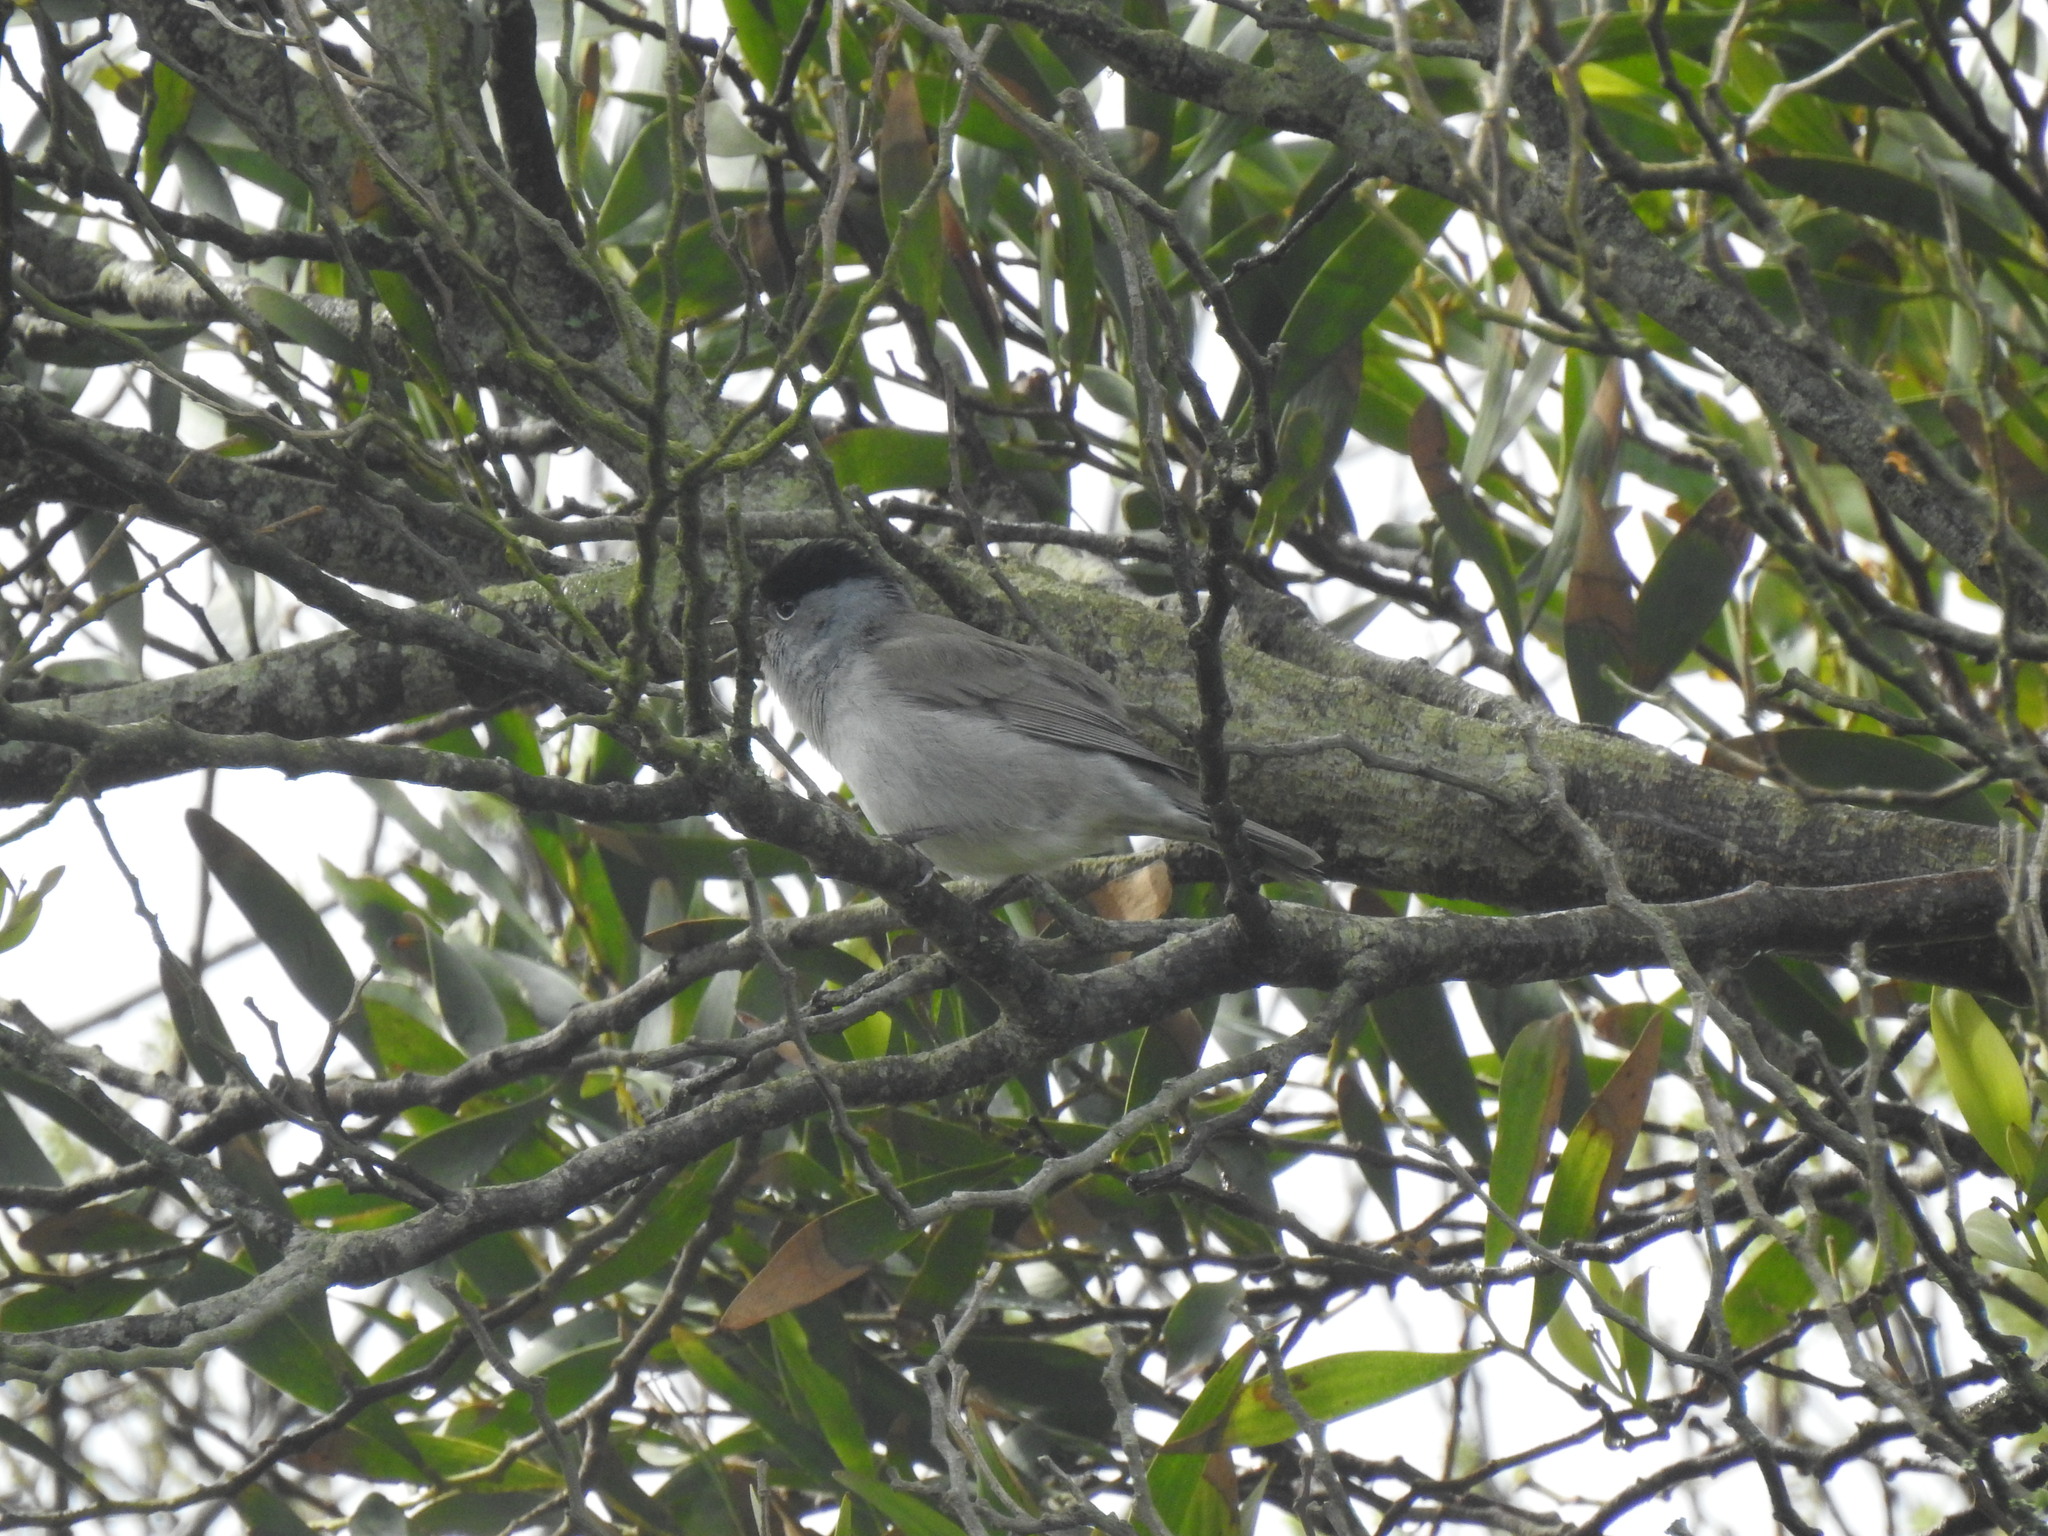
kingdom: Animalia
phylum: Chordata
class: Aves
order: Passeriformes
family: Sylviidae
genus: Sylvia
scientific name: Sylvia atricapilla
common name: Eurasian blackcap
